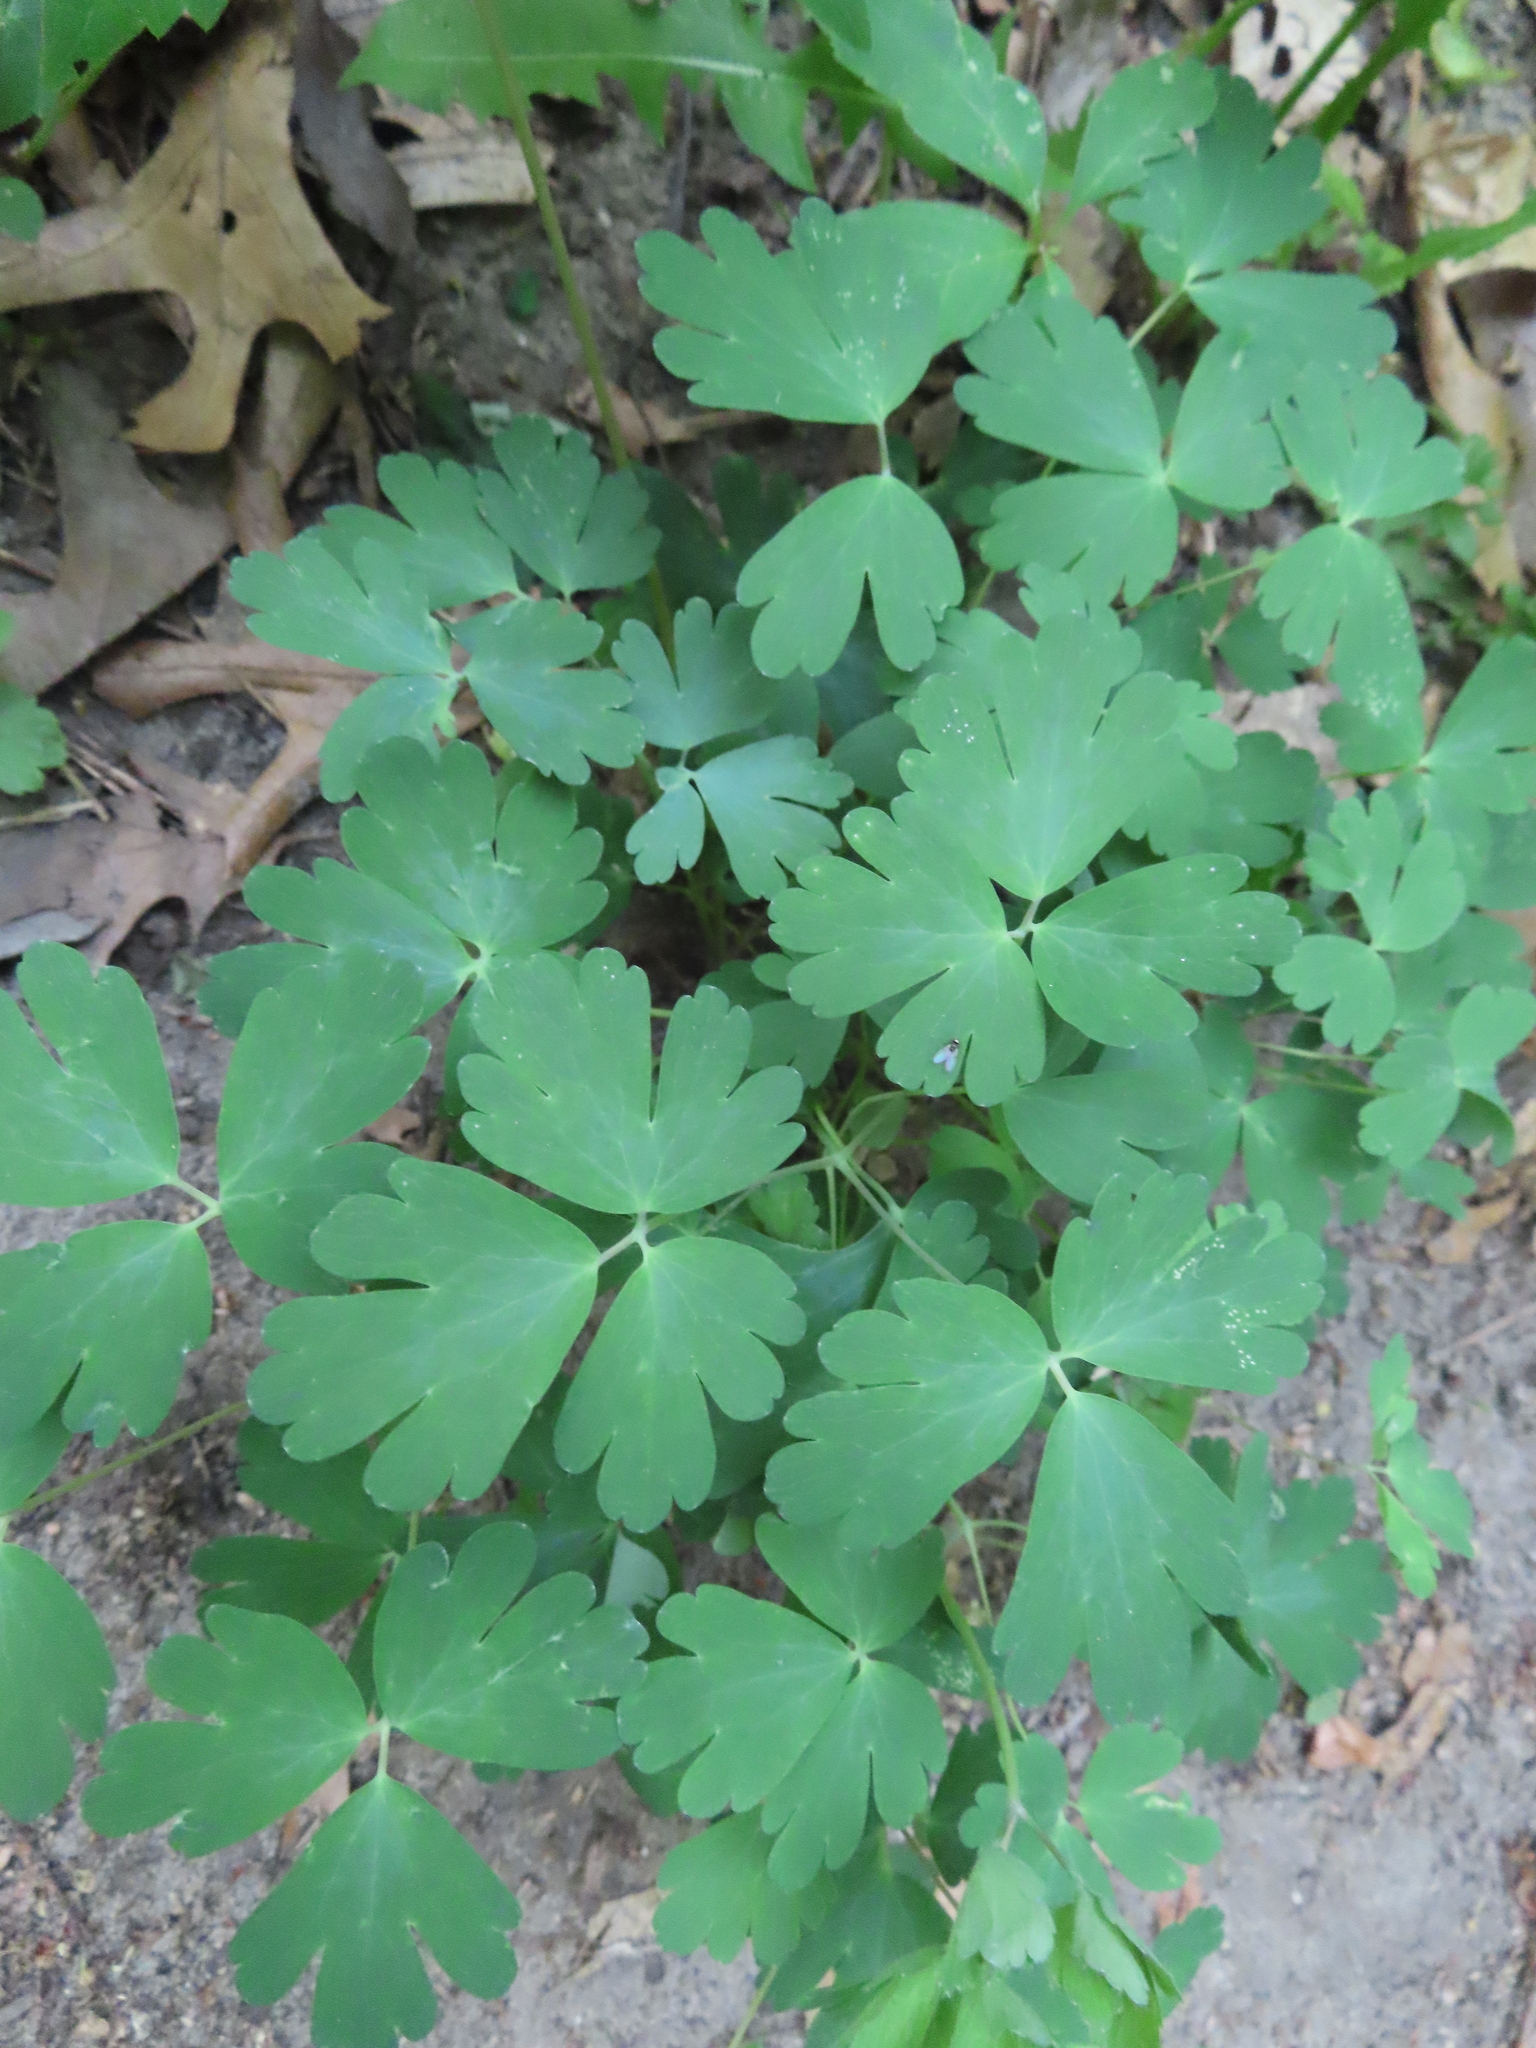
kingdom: Plantae
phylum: Tracheophyta
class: Magnoliopsida
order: Ranunculales
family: Ranunculaceae
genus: Aquilegia
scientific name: Aquilegia canadensis
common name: American columbine
